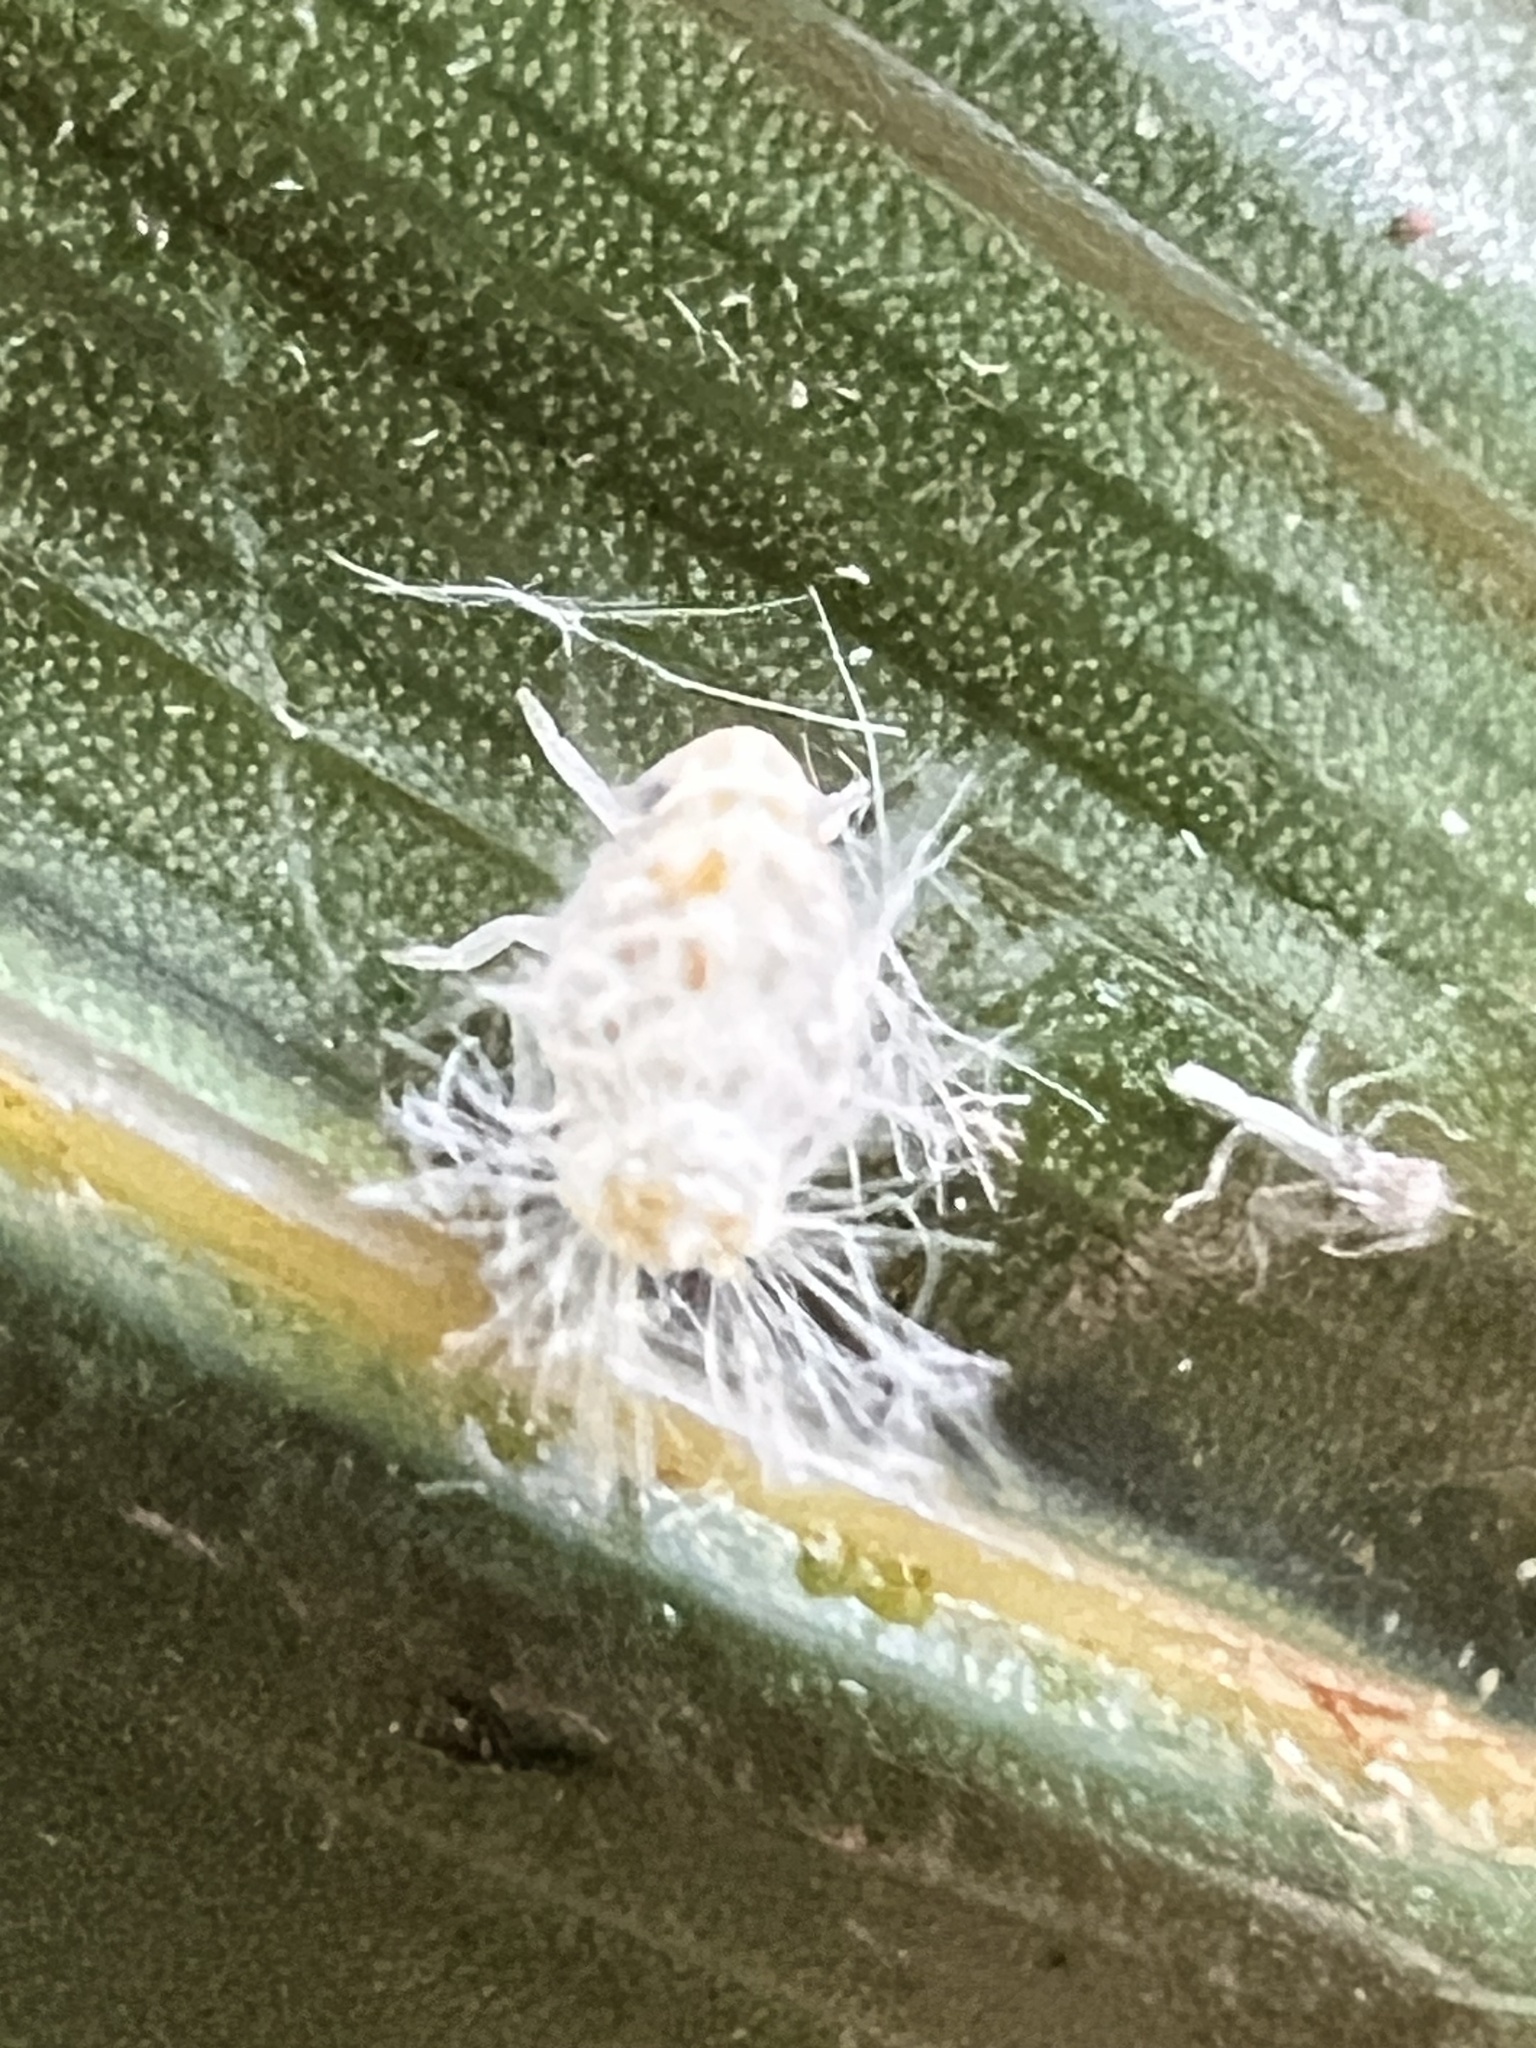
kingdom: Animalia
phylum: Arthropoda
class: Insecta
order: Hemiptera
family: Ricaniidae
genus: Scolypopa
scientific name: Scolypopa australis
